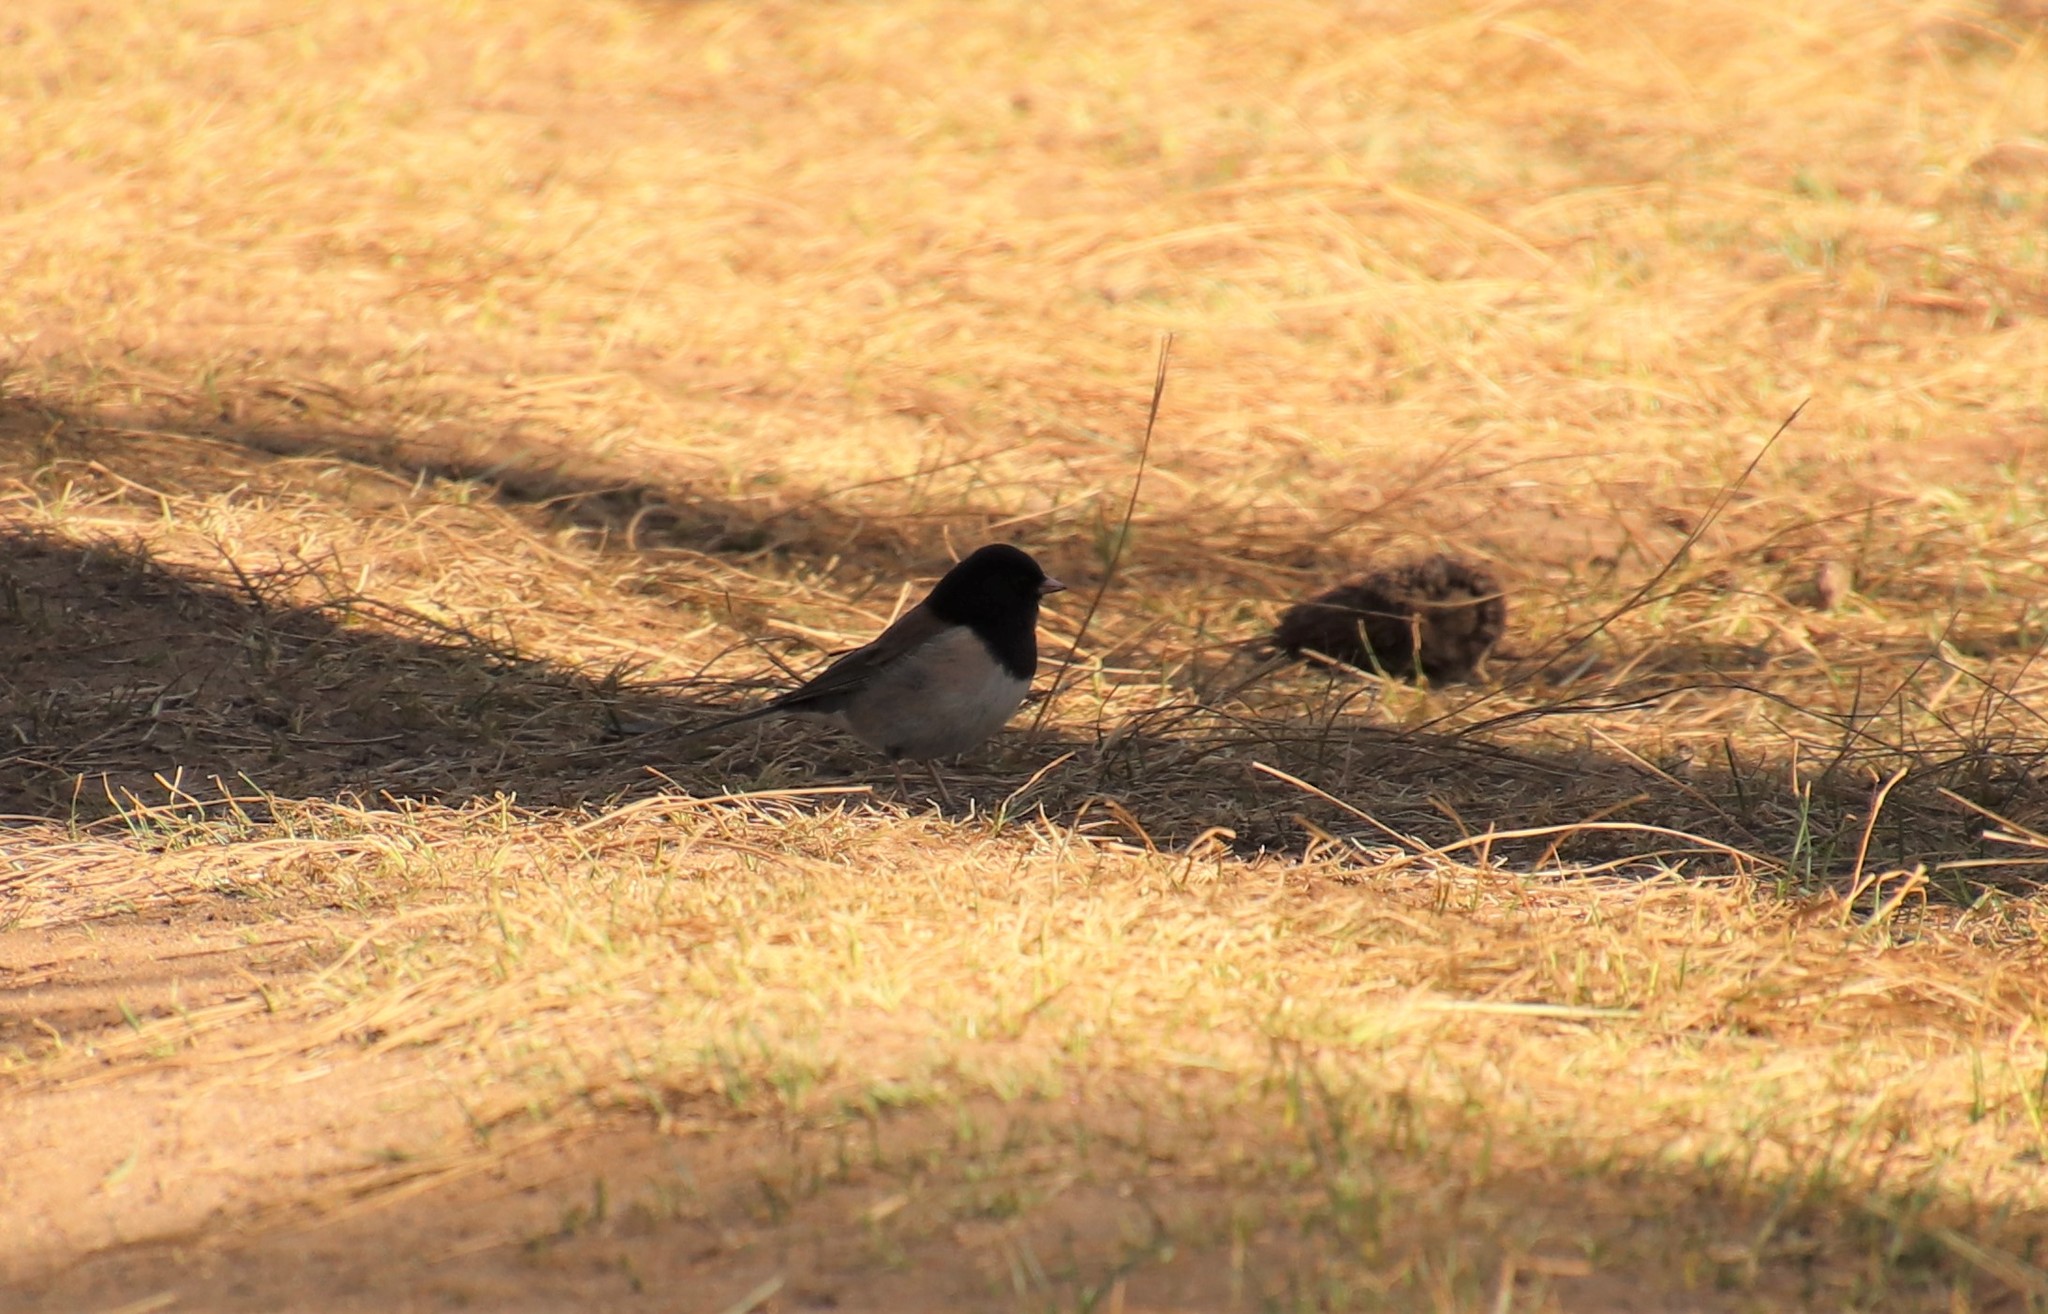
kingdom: Animalia
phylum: Chordata
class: Aves
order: Passeriformes
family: Passerellidae
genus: Junco
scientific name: Junco hyemalis
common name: Dark-eyed junco
